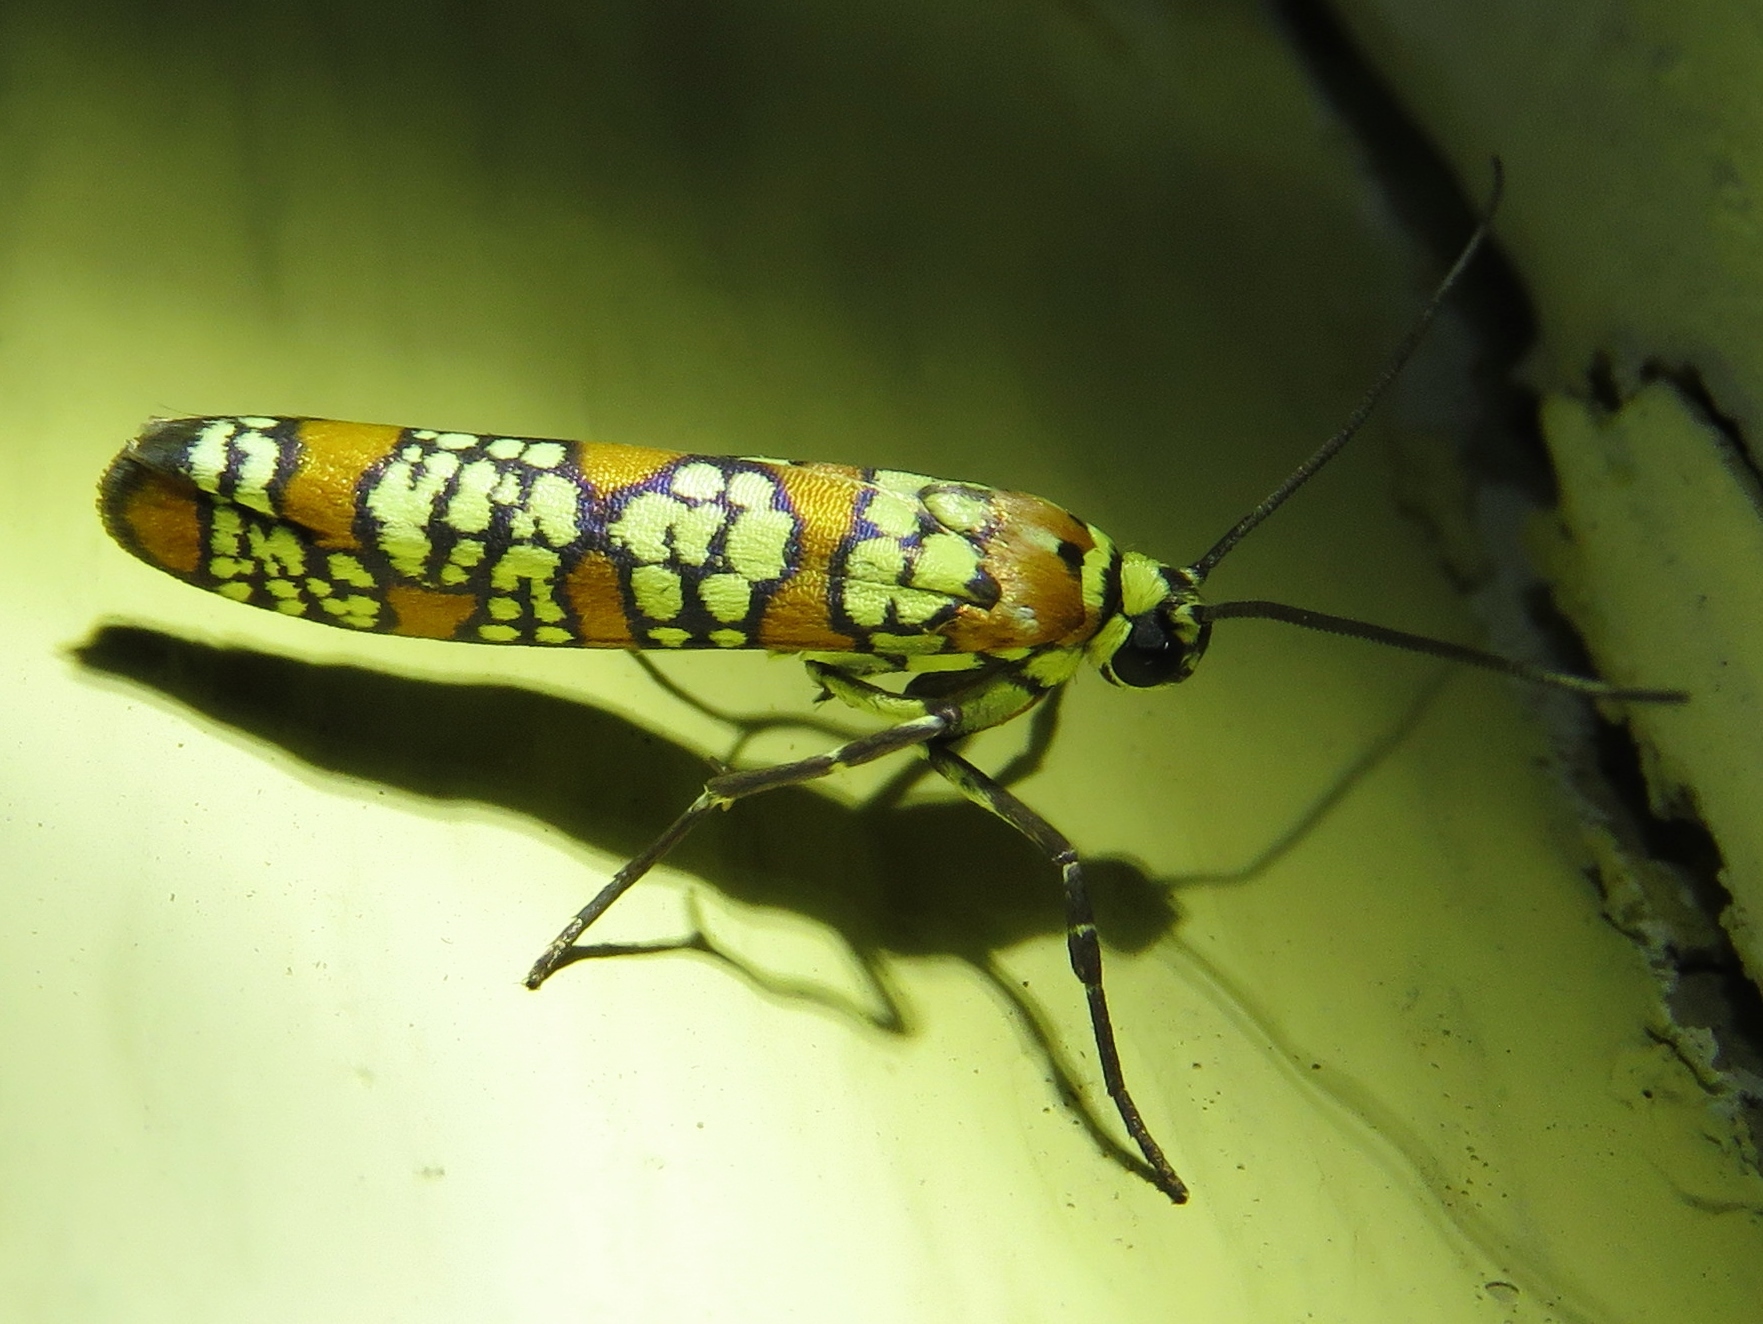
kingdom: Animalia
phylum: Arthropoda
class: Insecta
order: Lepidoptera
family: Attevidae
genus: Atteva
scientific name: Atteva punctella
